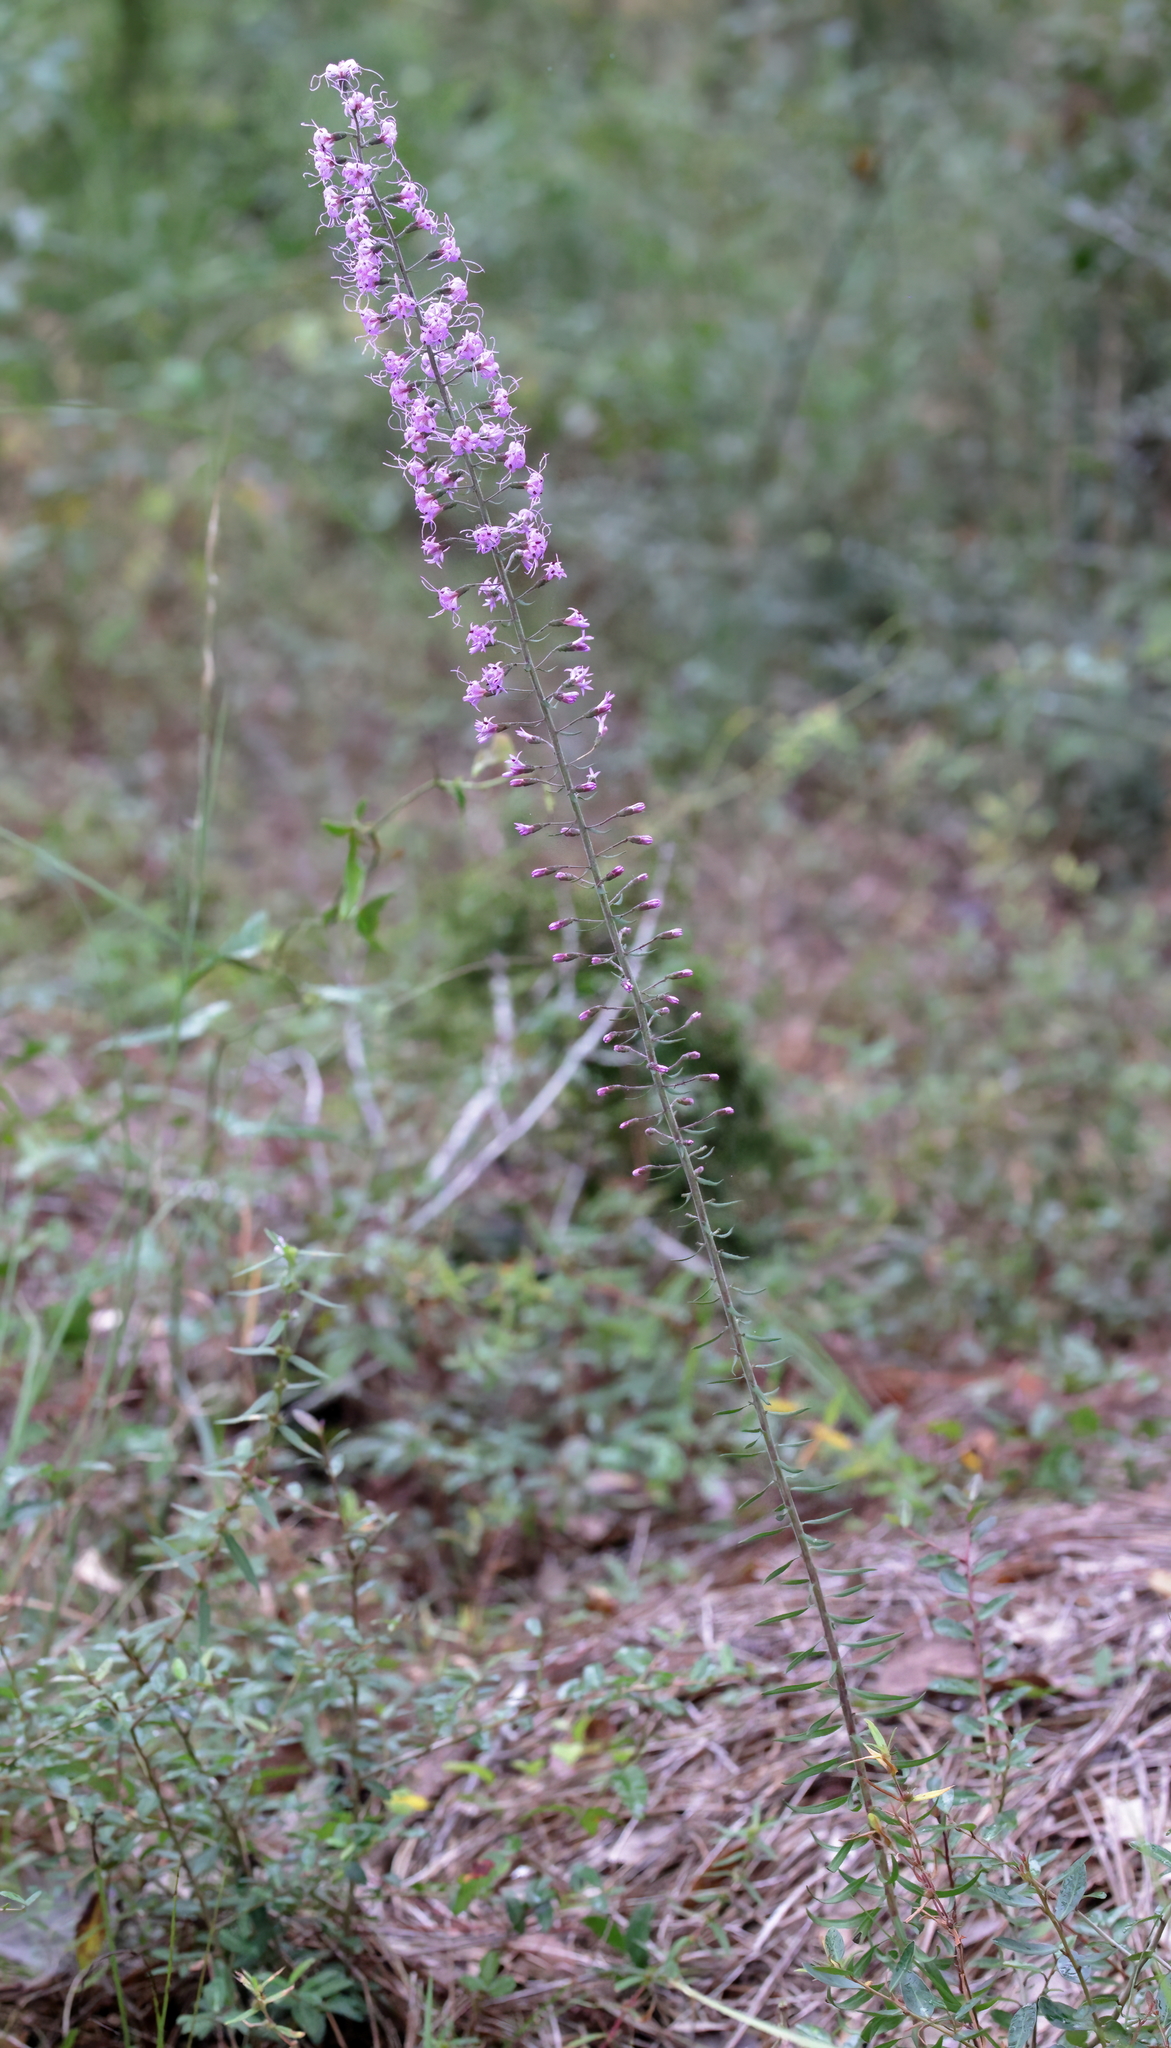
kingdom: Plantae
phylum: Tracheophyta
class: Magnoliopsida
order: Asterales
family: Asteraceae
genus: Liatris
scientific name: Liatris gracilis
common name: Slender gayfeather
